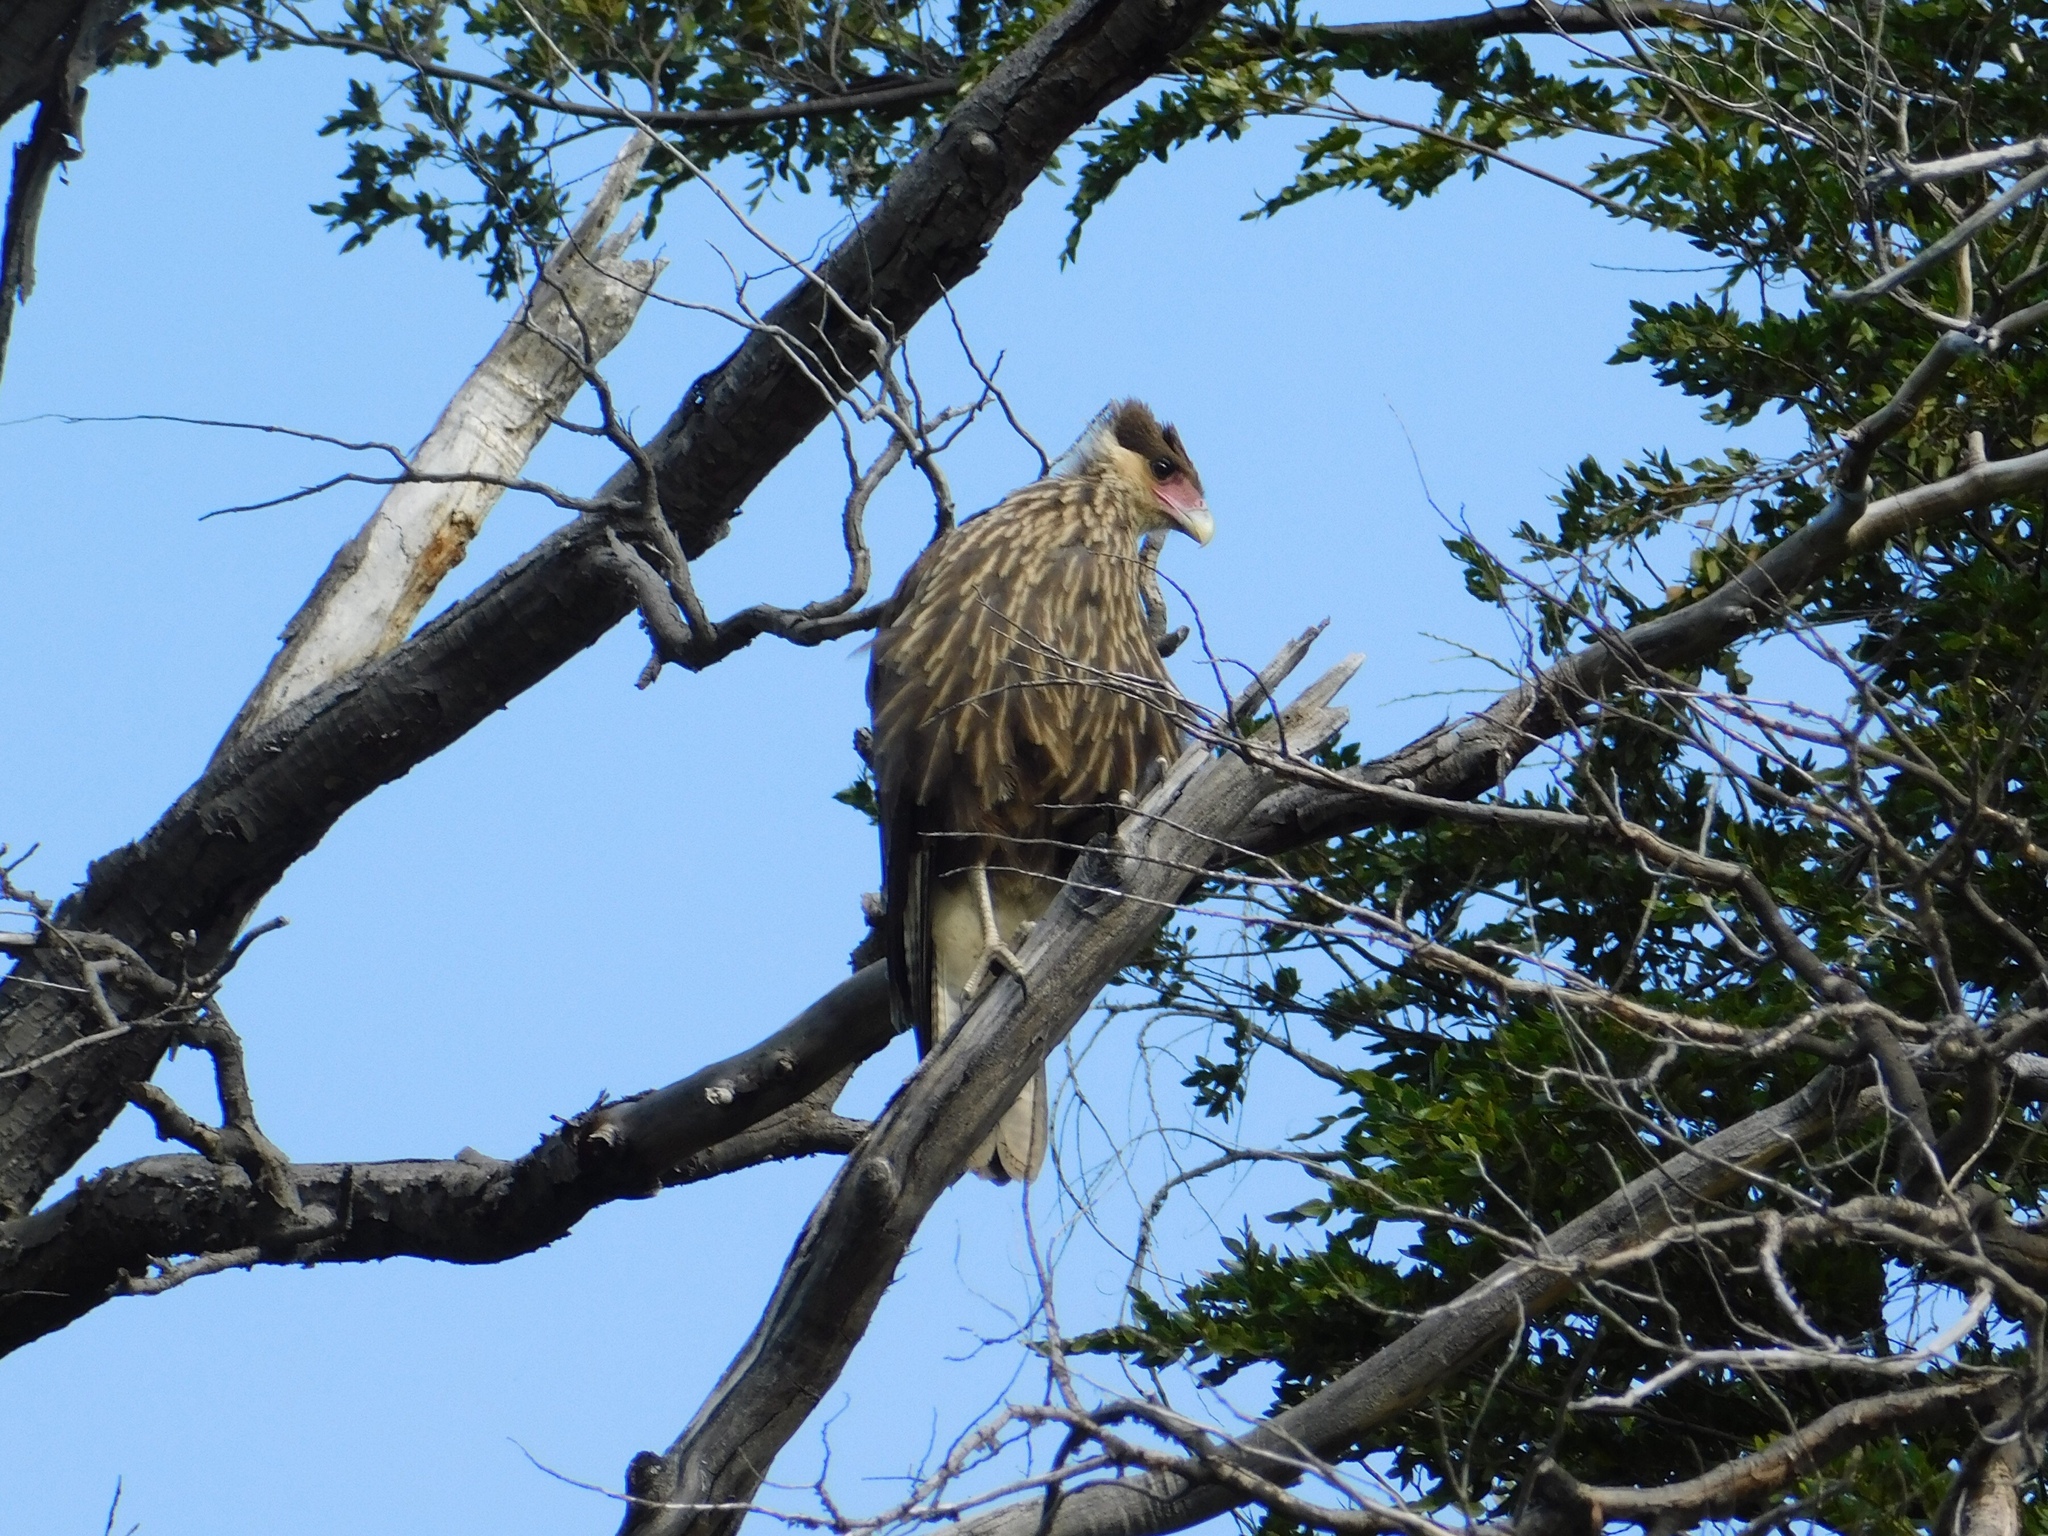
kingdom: Animalia
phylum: Chordata
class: Aves
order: Falconiformes
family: Falconidae
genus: Caracara
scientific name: Caracara plancus
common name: Southern caracara
